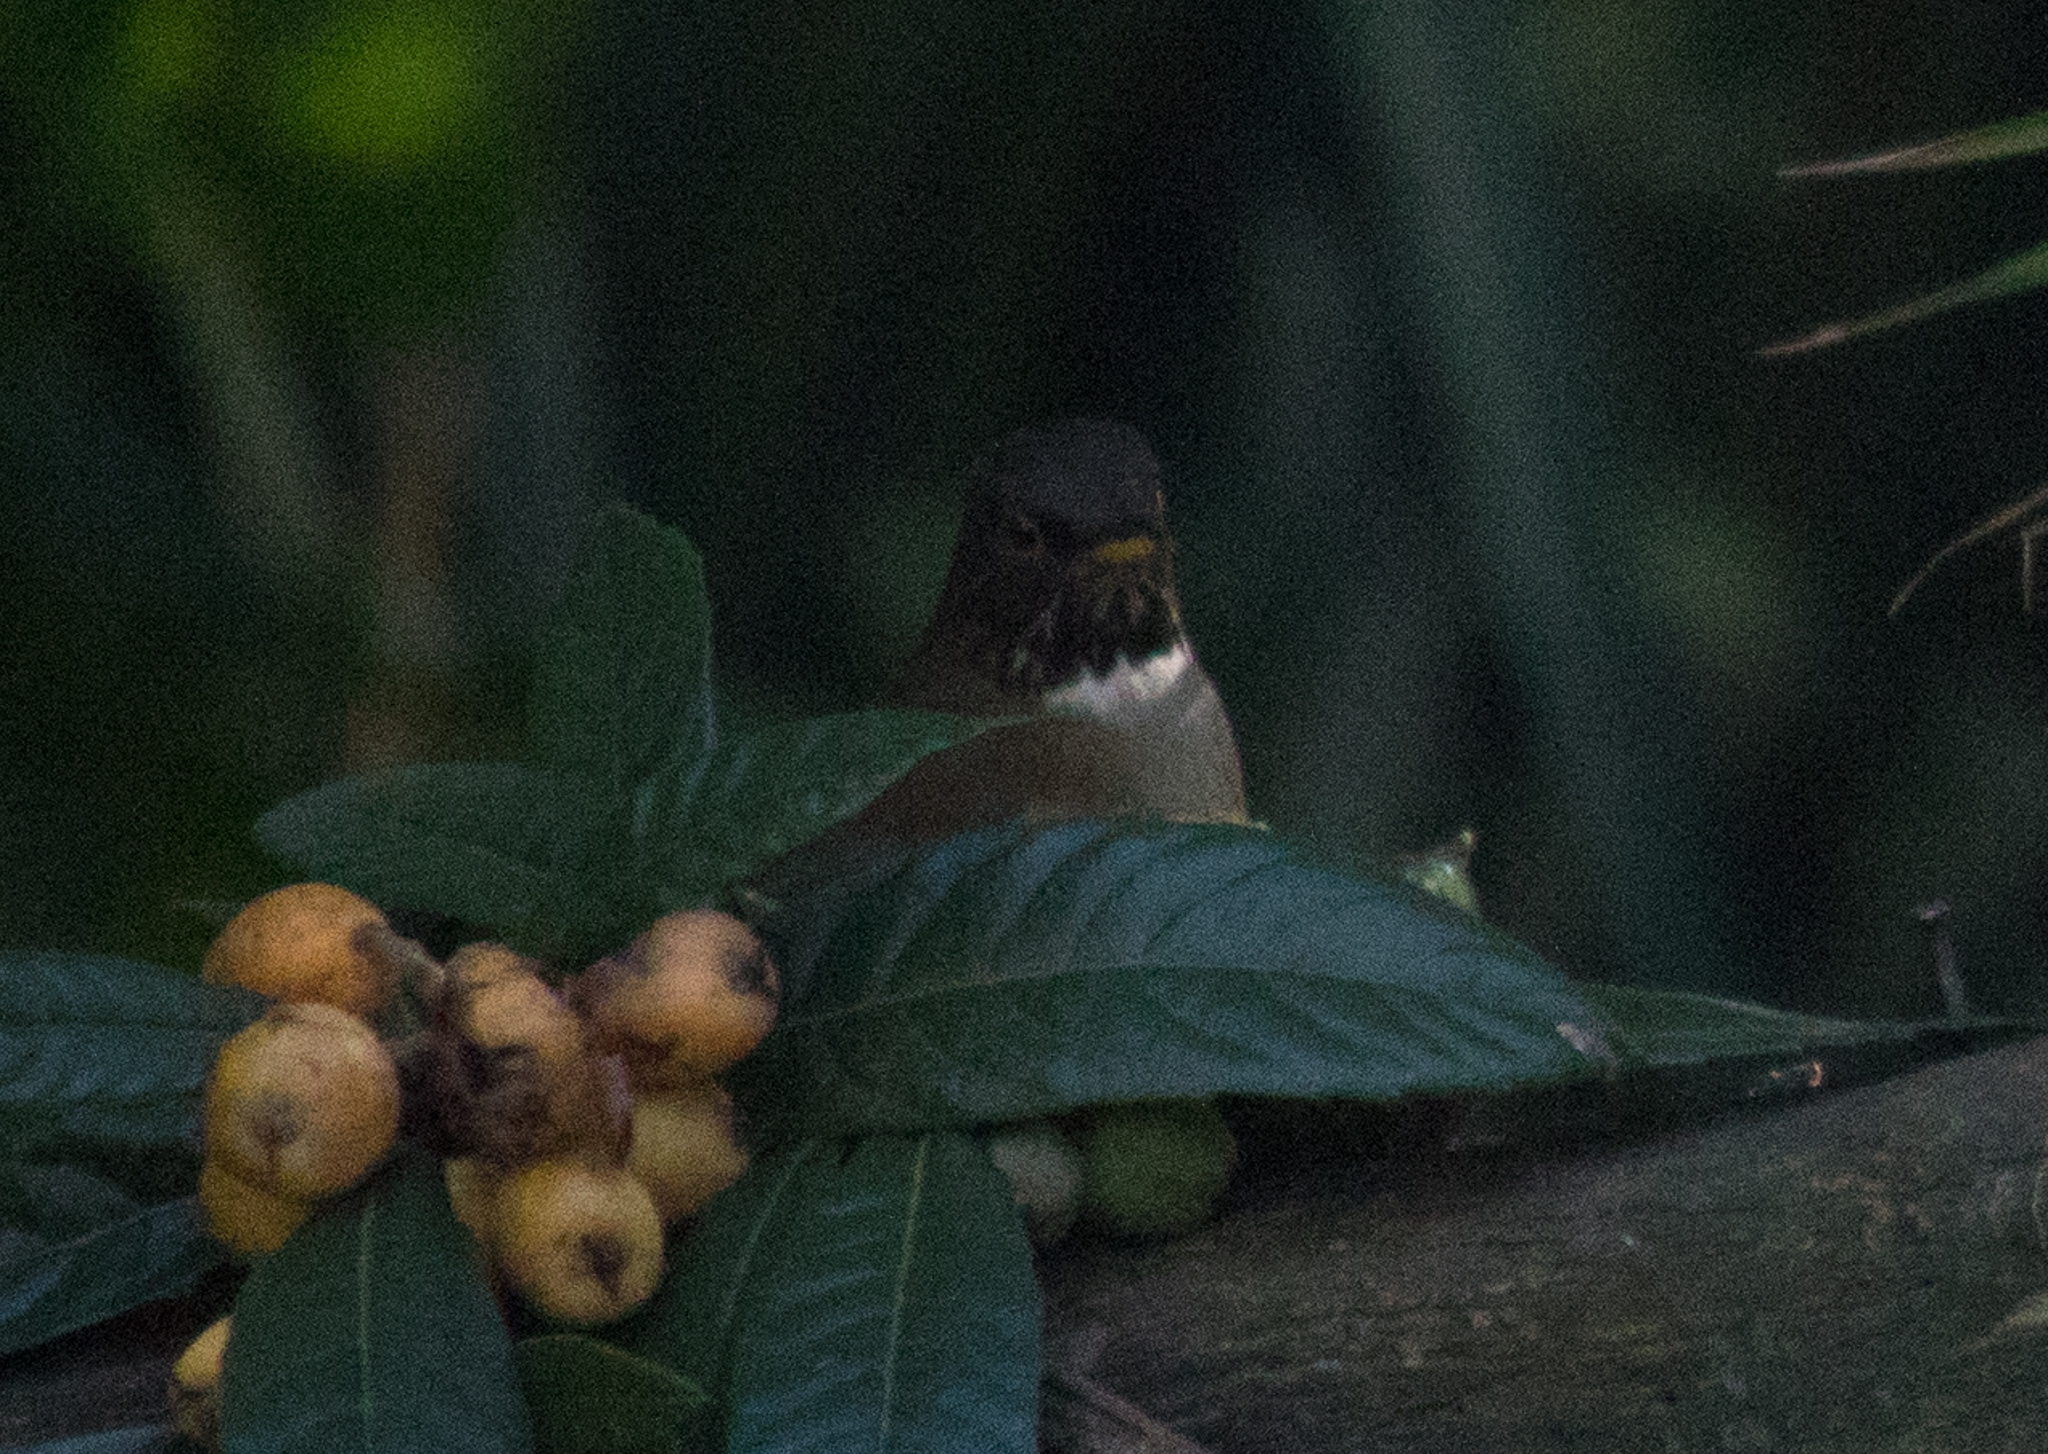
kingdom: Animalia
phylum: Chordata
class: Aves
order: Passeriformes
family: Turdidae
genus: Turdus
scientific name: Turdus albicollis
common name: White-necked thrush
